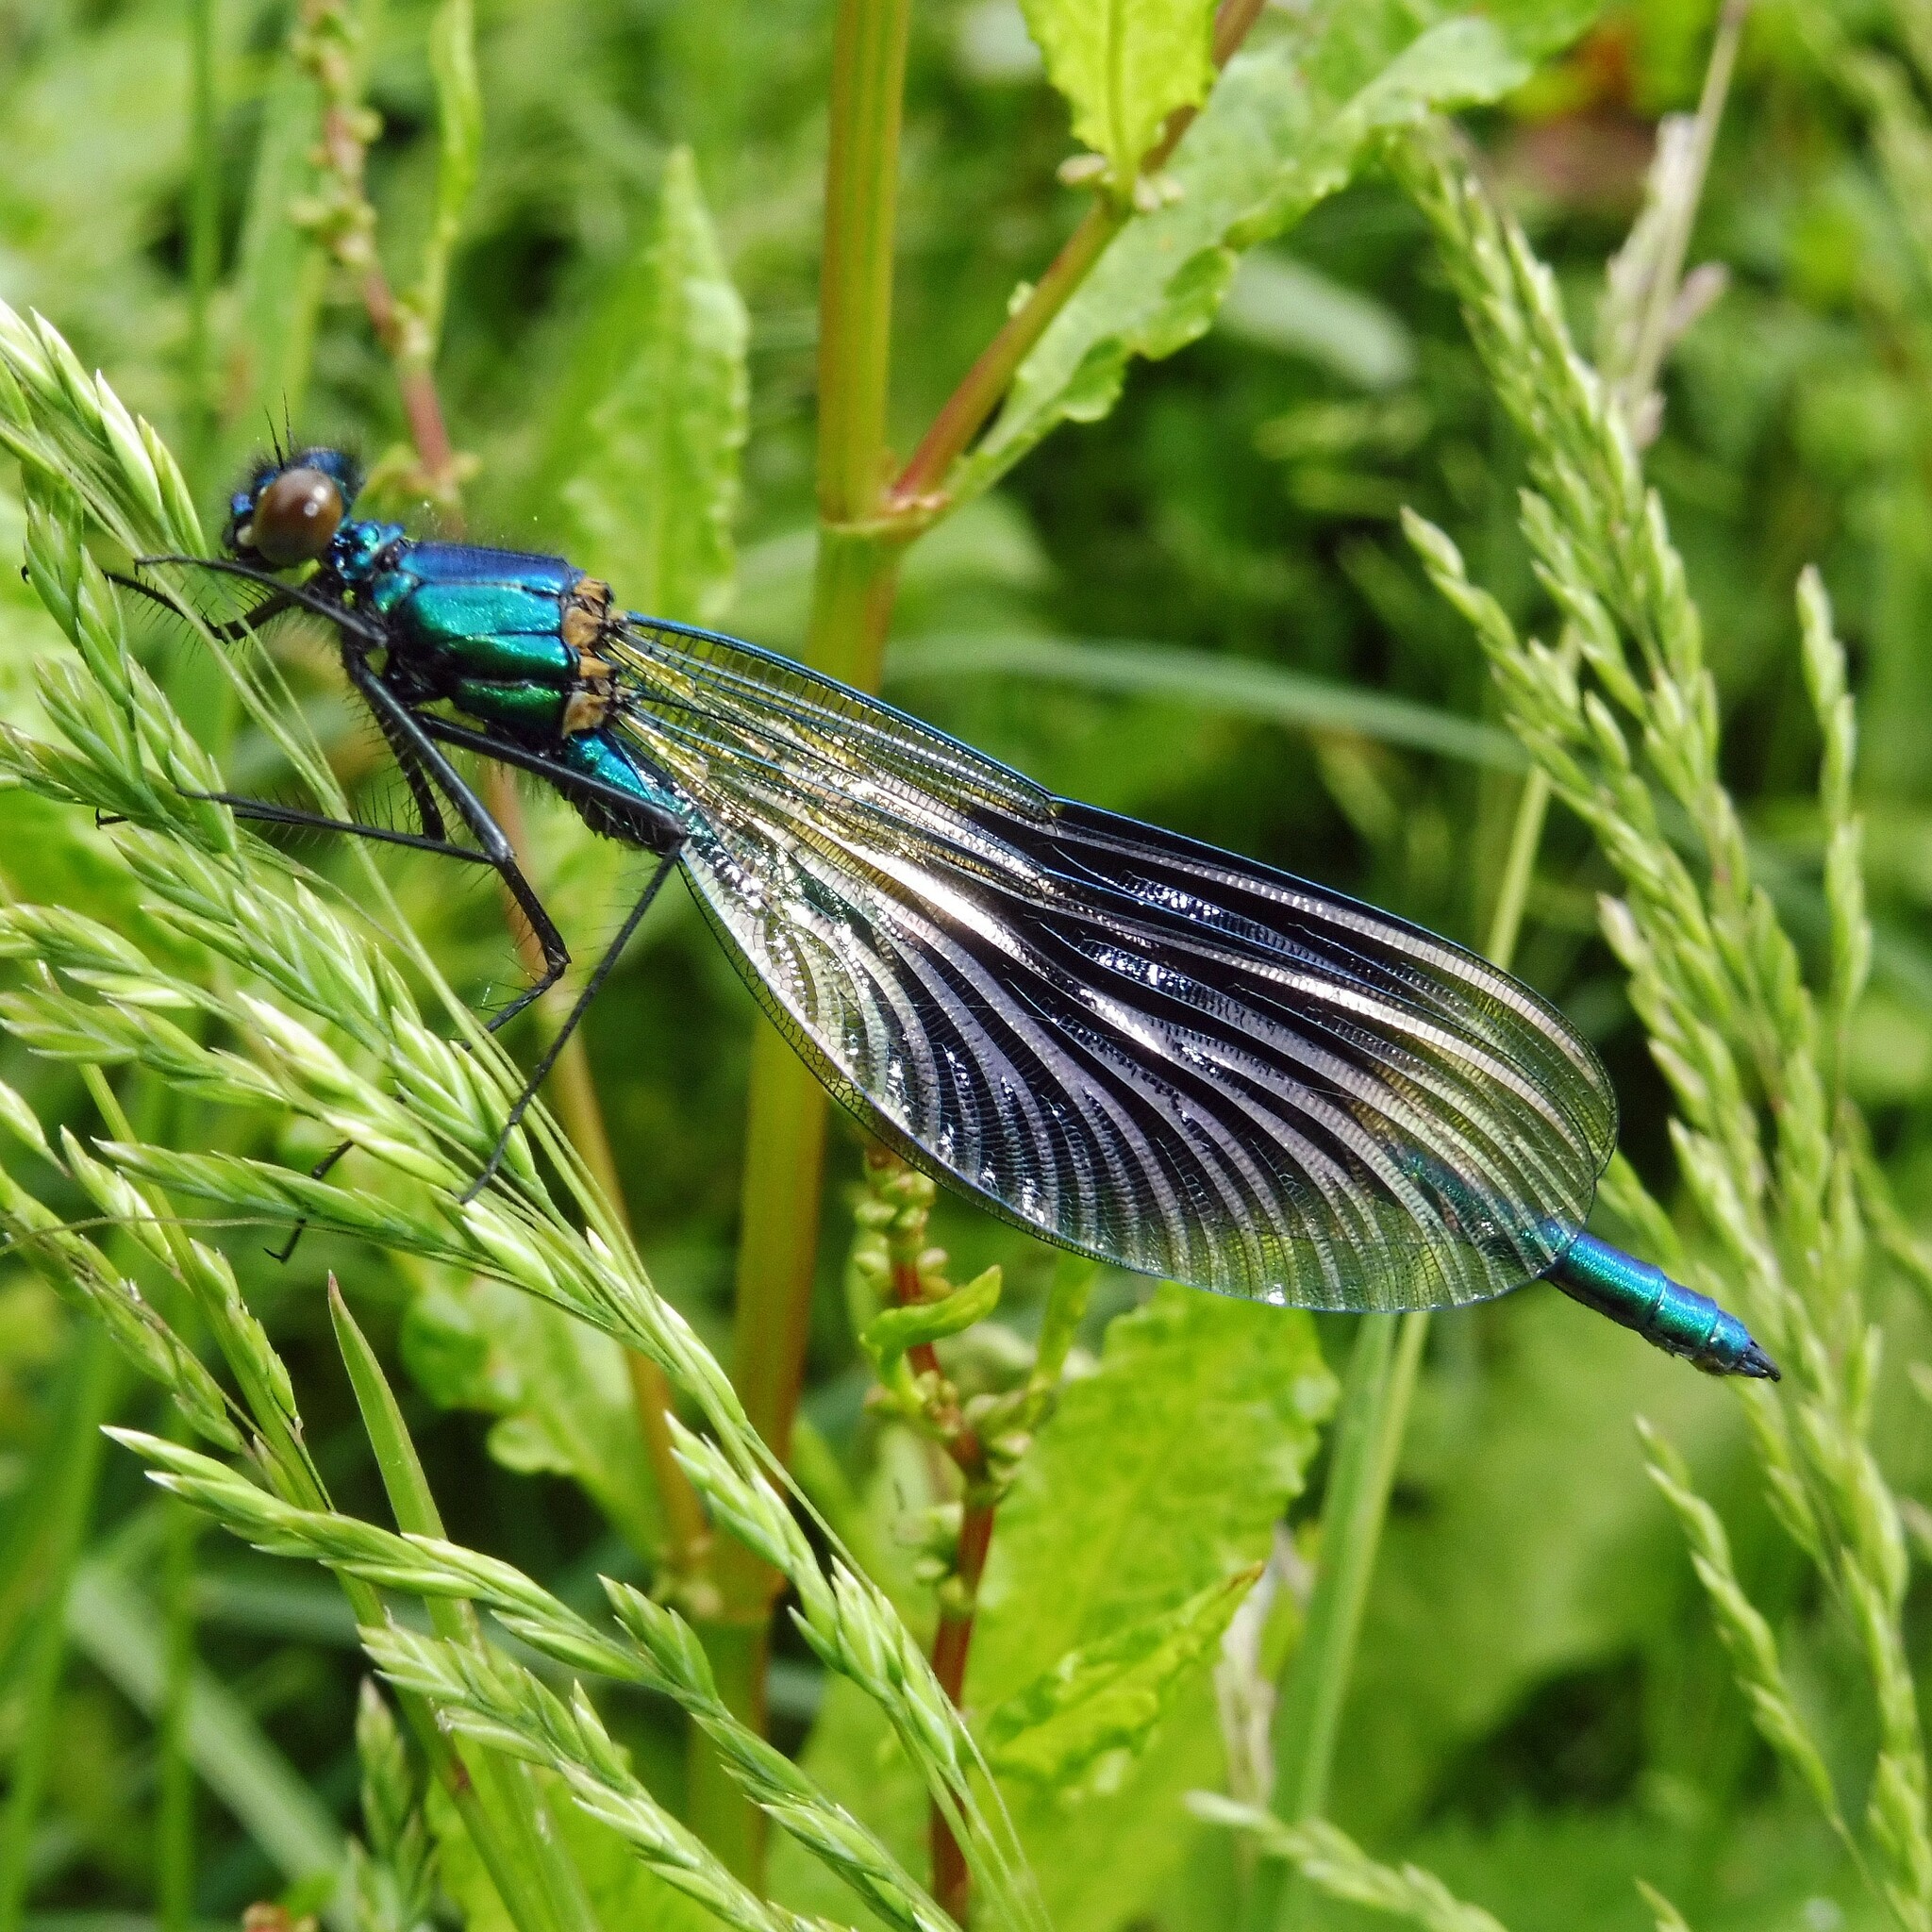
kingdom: Animalia
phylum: Arthropoda
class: Insecta
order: Odonata
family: Calopterygidae
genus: Calopteryx
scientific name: Calopteryx splendens
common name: Banded demoiselle
